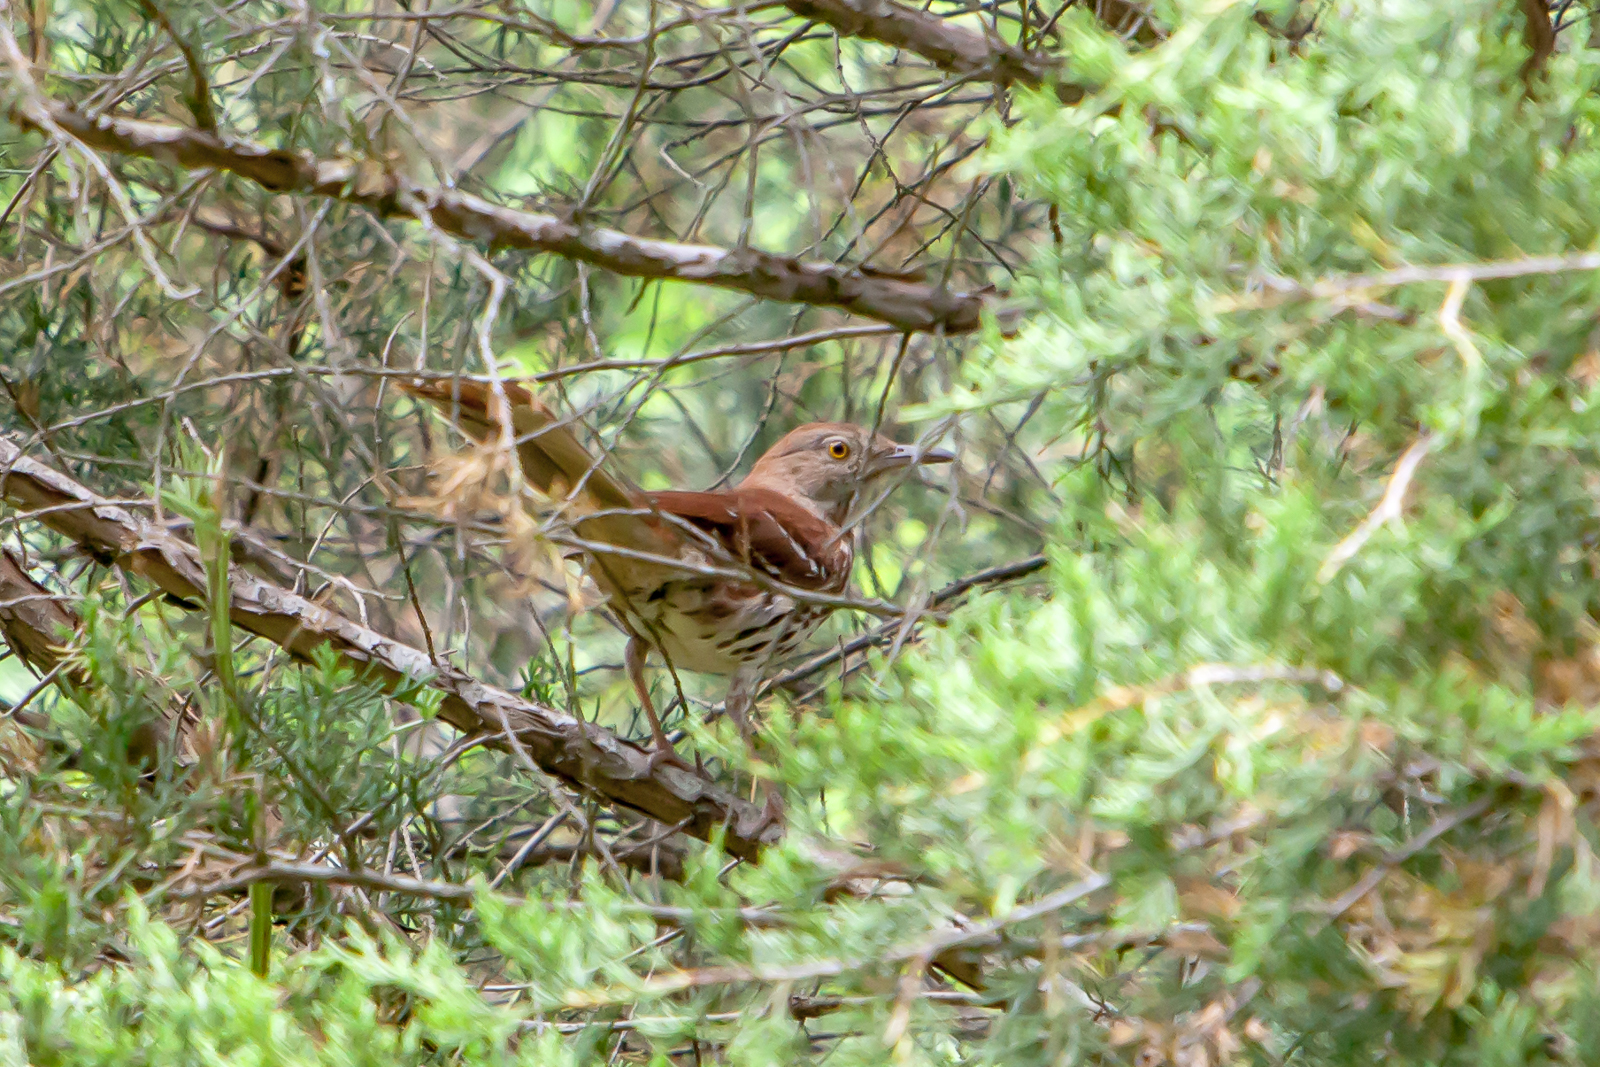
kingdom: Animalia
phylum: Chordata
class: Aves
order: Passeriformes
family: Mimidae
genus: Toxostoma
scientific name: Toxostoma rufum
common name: Brown thrasher
